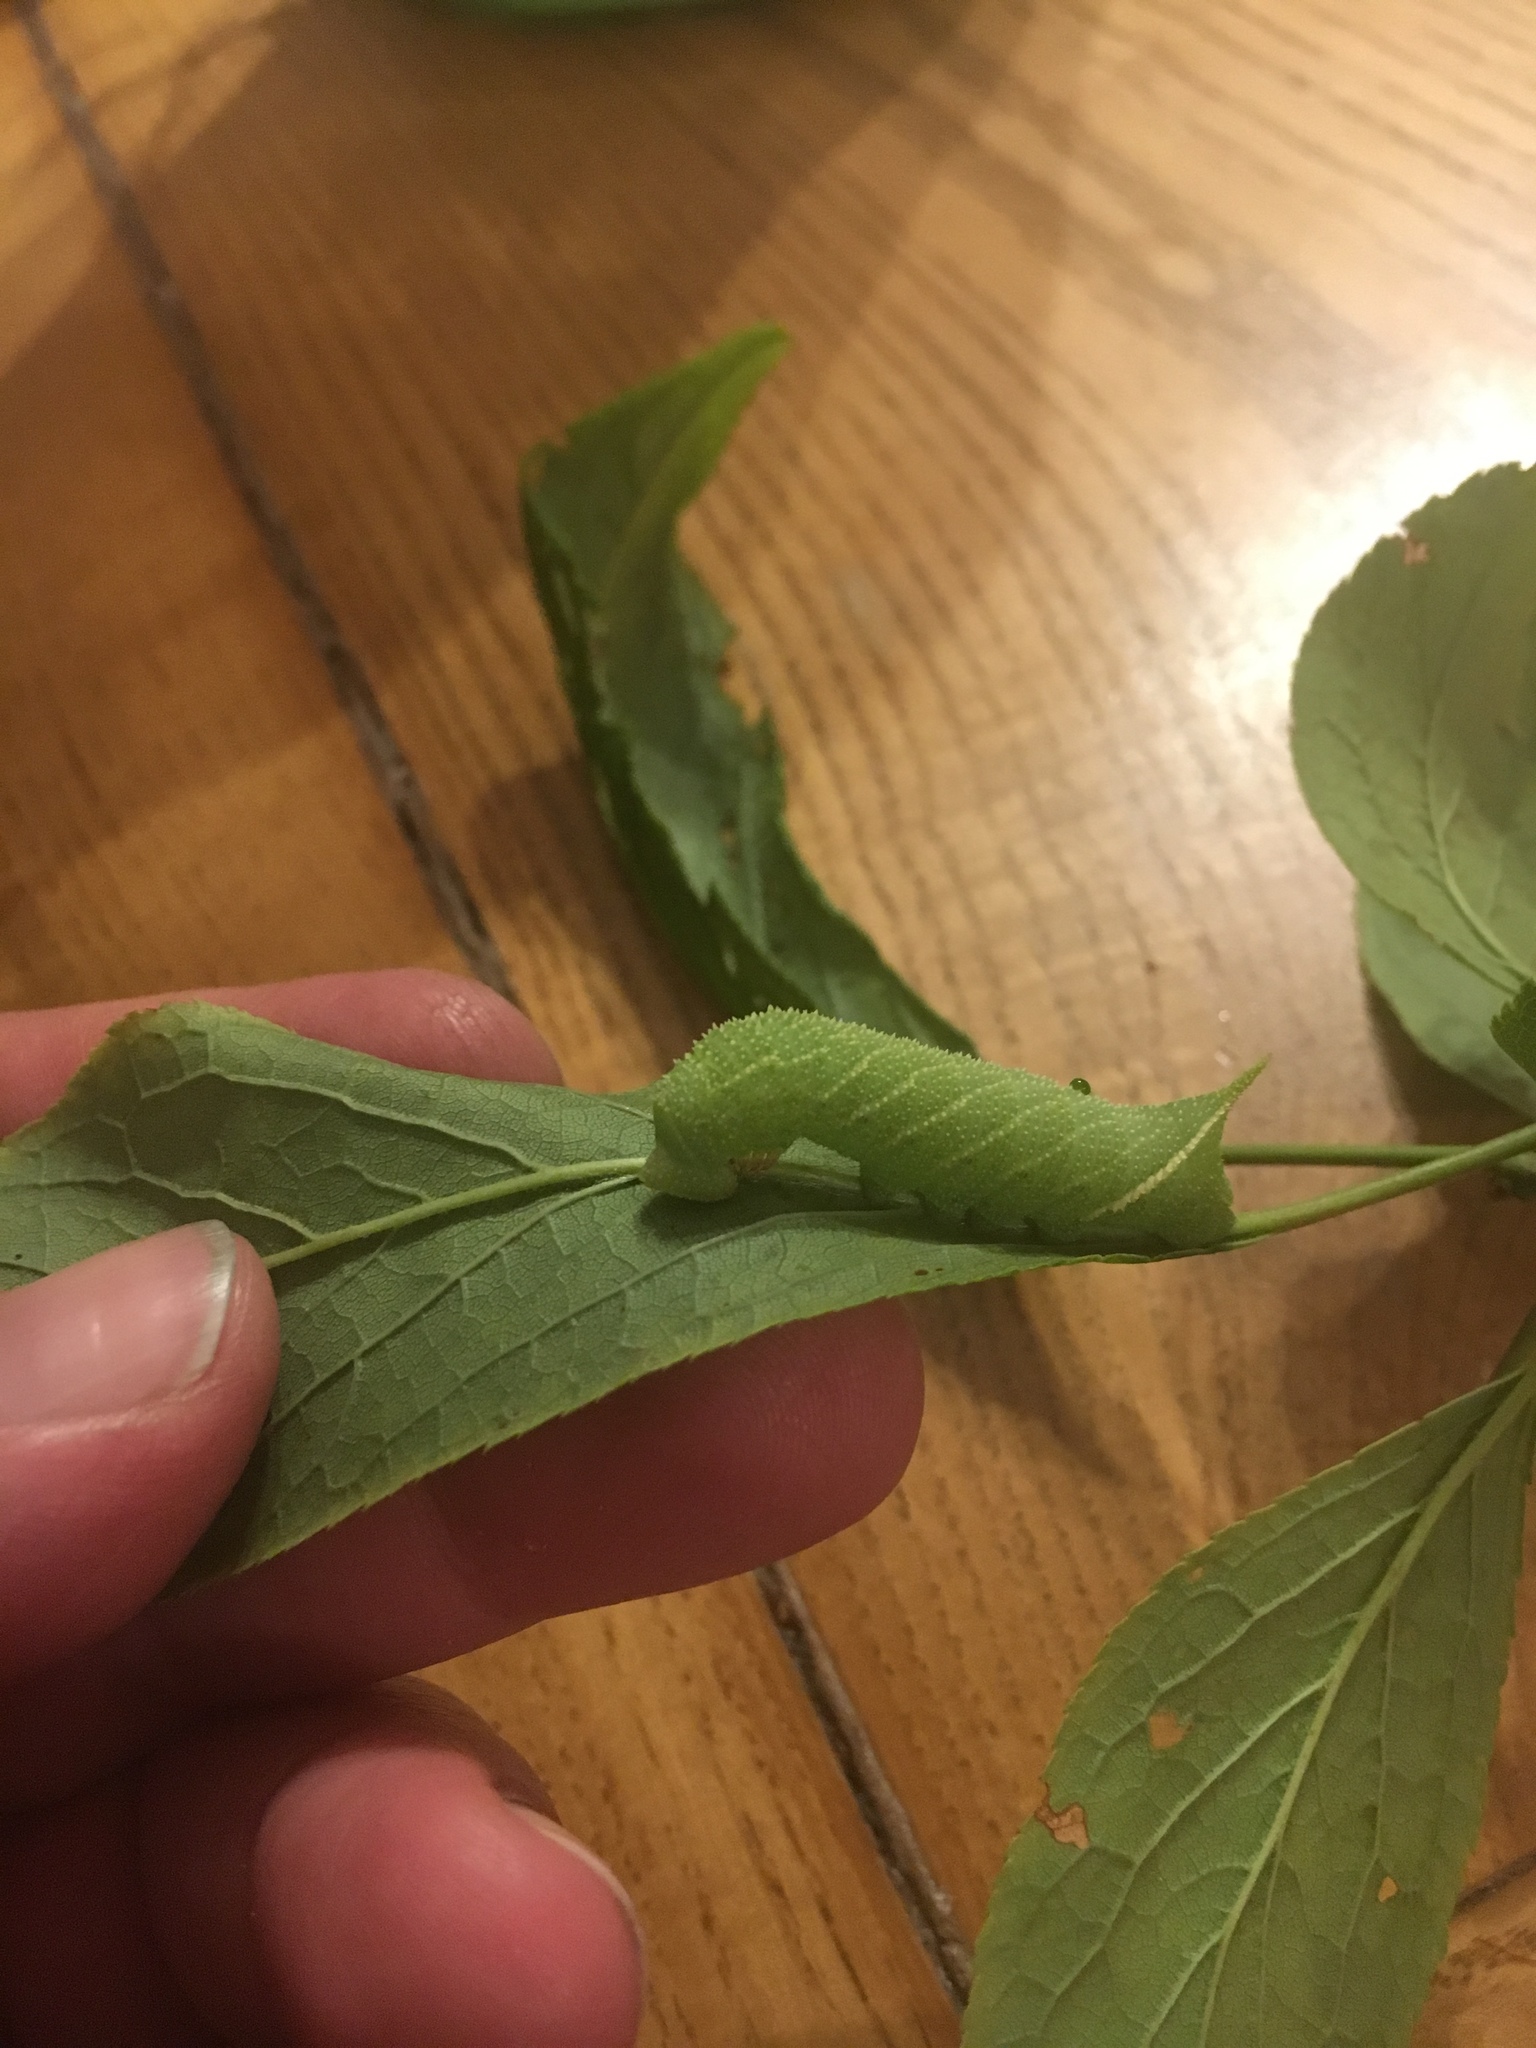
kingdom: Animalia
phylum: Arthropoda
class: Insecta
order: Lepidoptera
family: Sphingidae
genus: Paonias
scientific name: Paonias excaecata
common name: Blind-eyed sphinx
